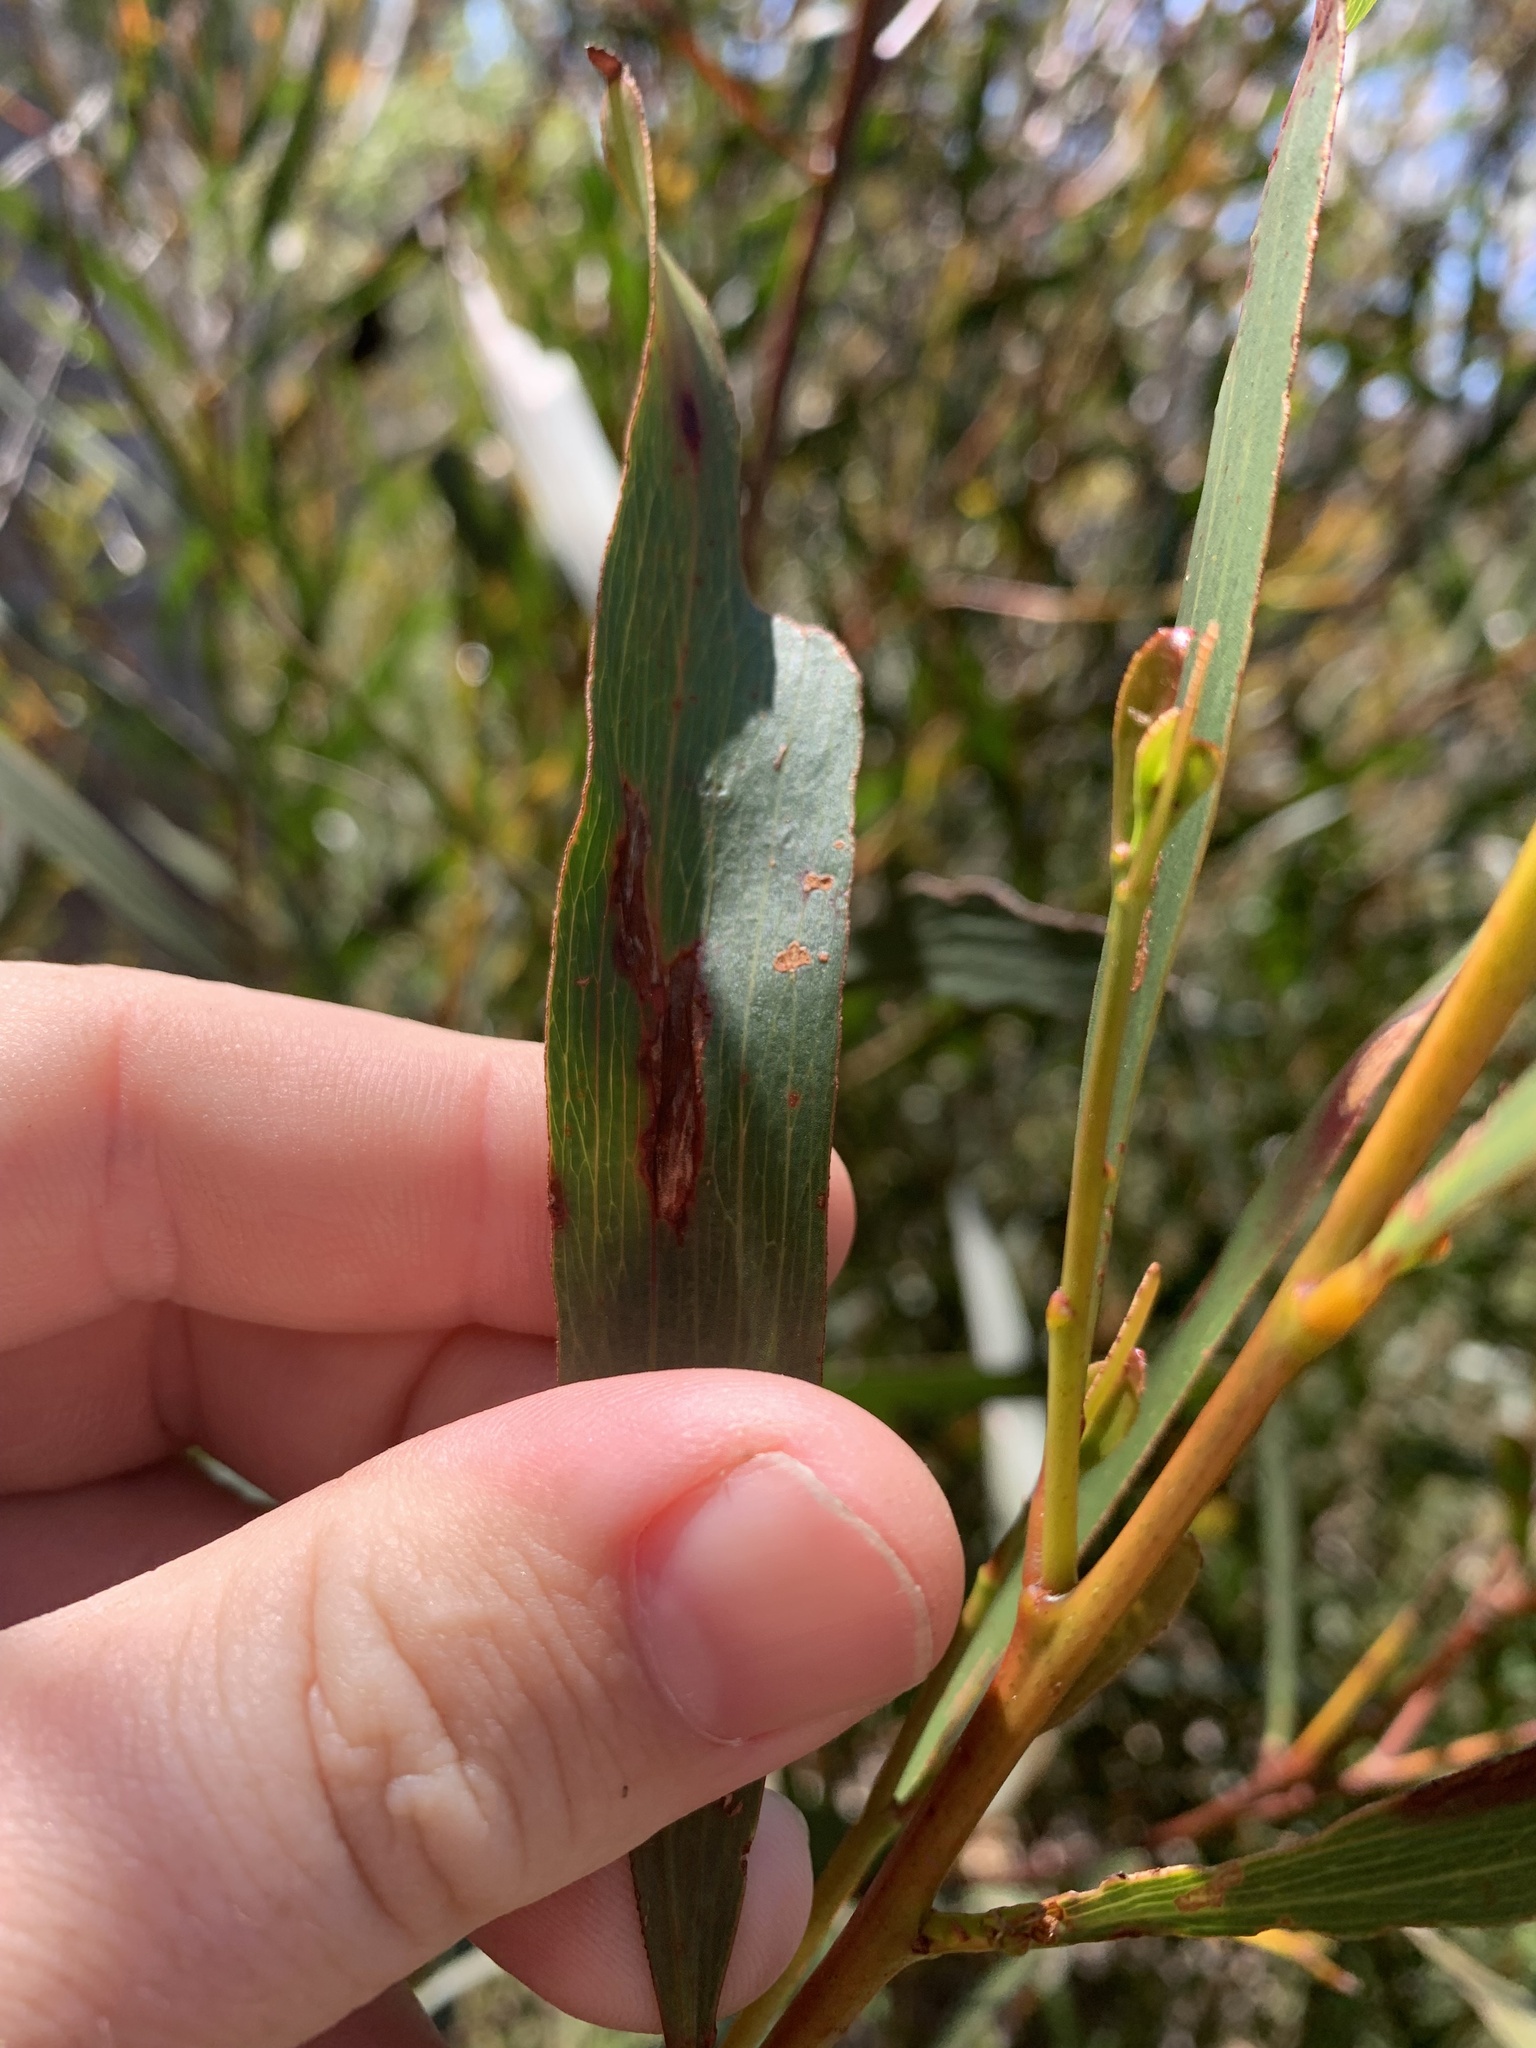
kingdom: Plantae
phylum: Tracheophyta
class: Magnoliopsida
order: Fabales
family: Fabaceae
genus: Acacia
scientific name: Acacia obtusifolia
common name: Stiff-leaf wattle
